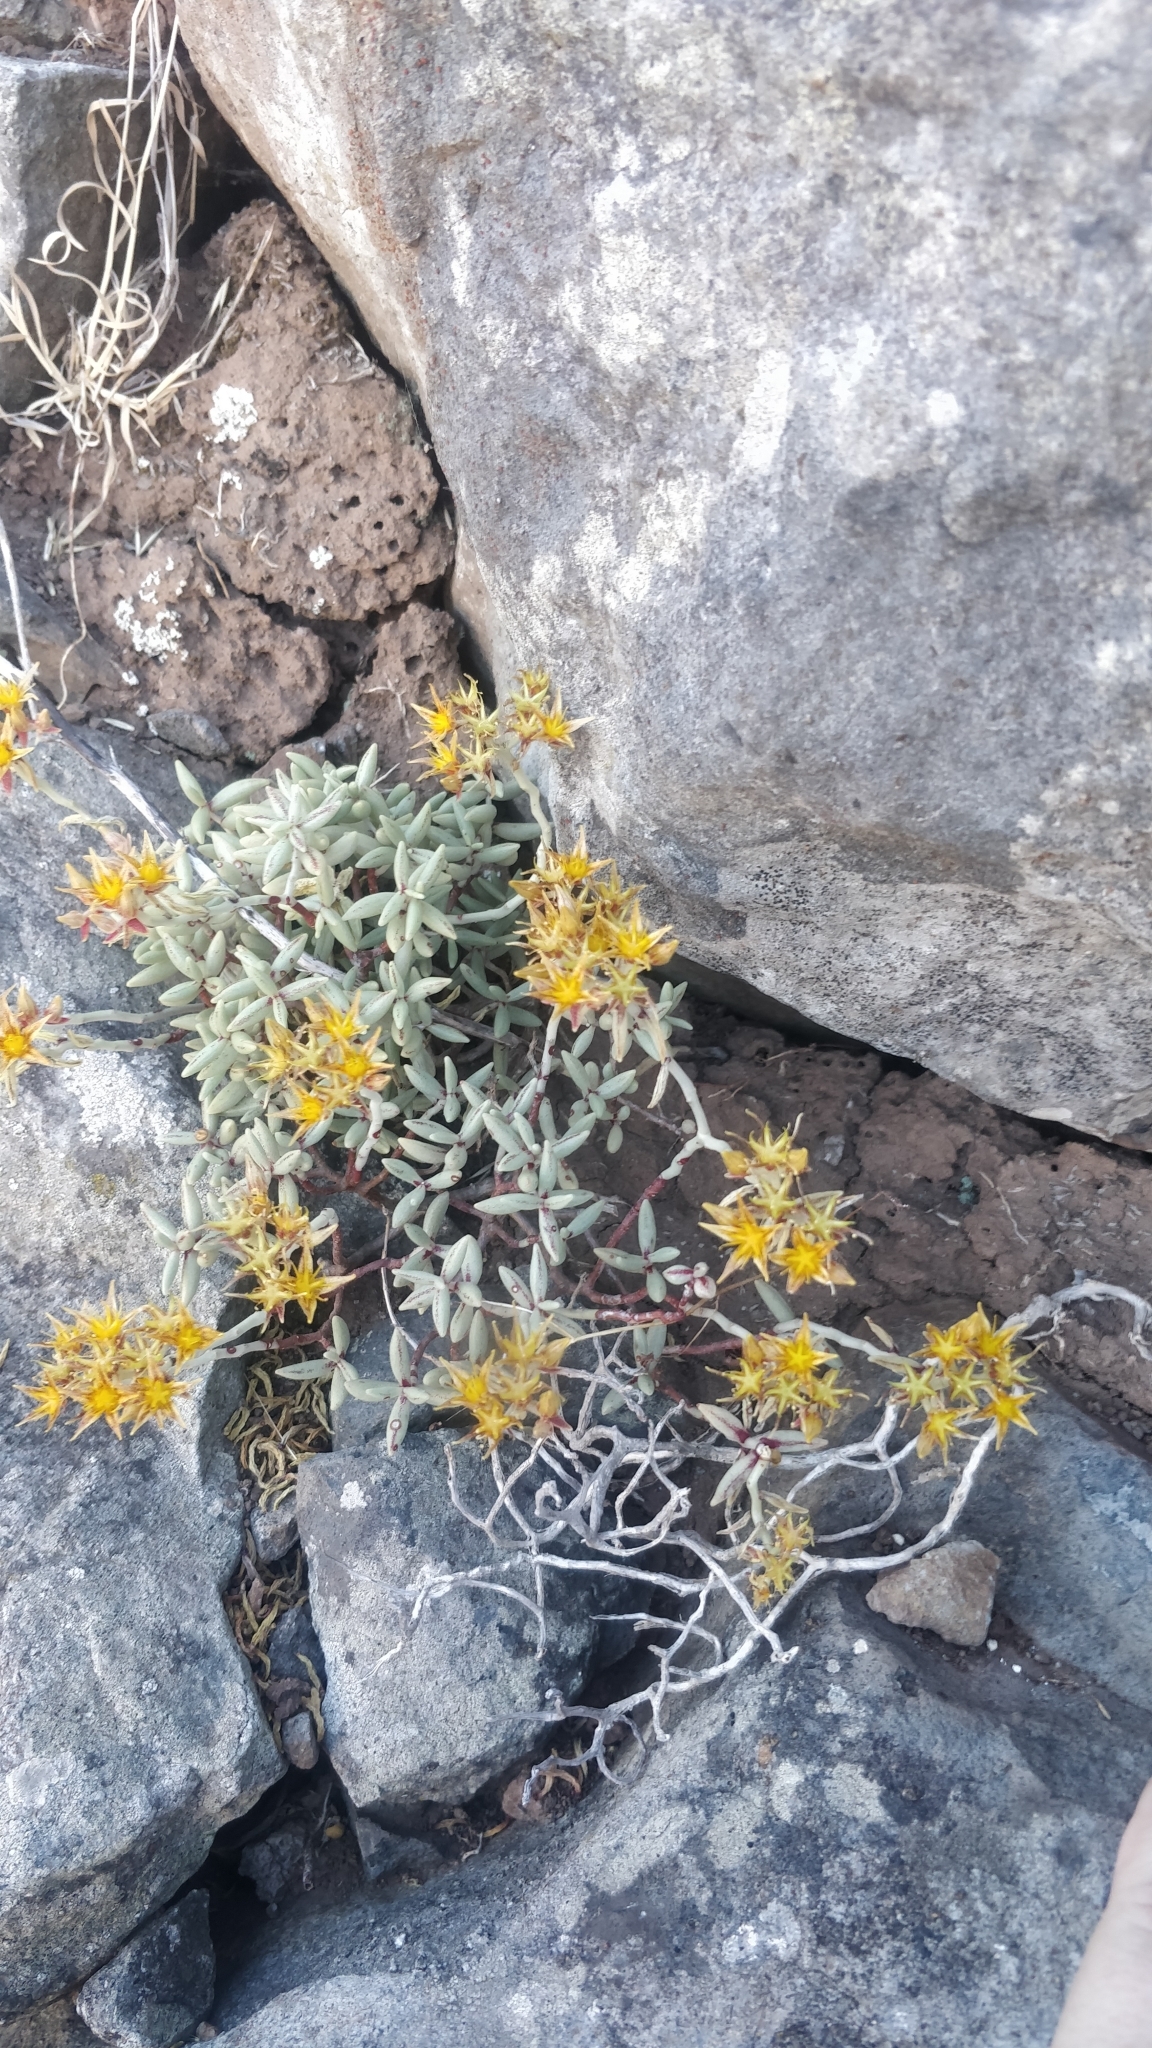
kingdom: Plantae
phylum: Tracheophyta
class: Magnoliopsida
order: Saxifragales
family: Crassulaceae
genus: Sedum
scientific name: Sedum fusiforme
